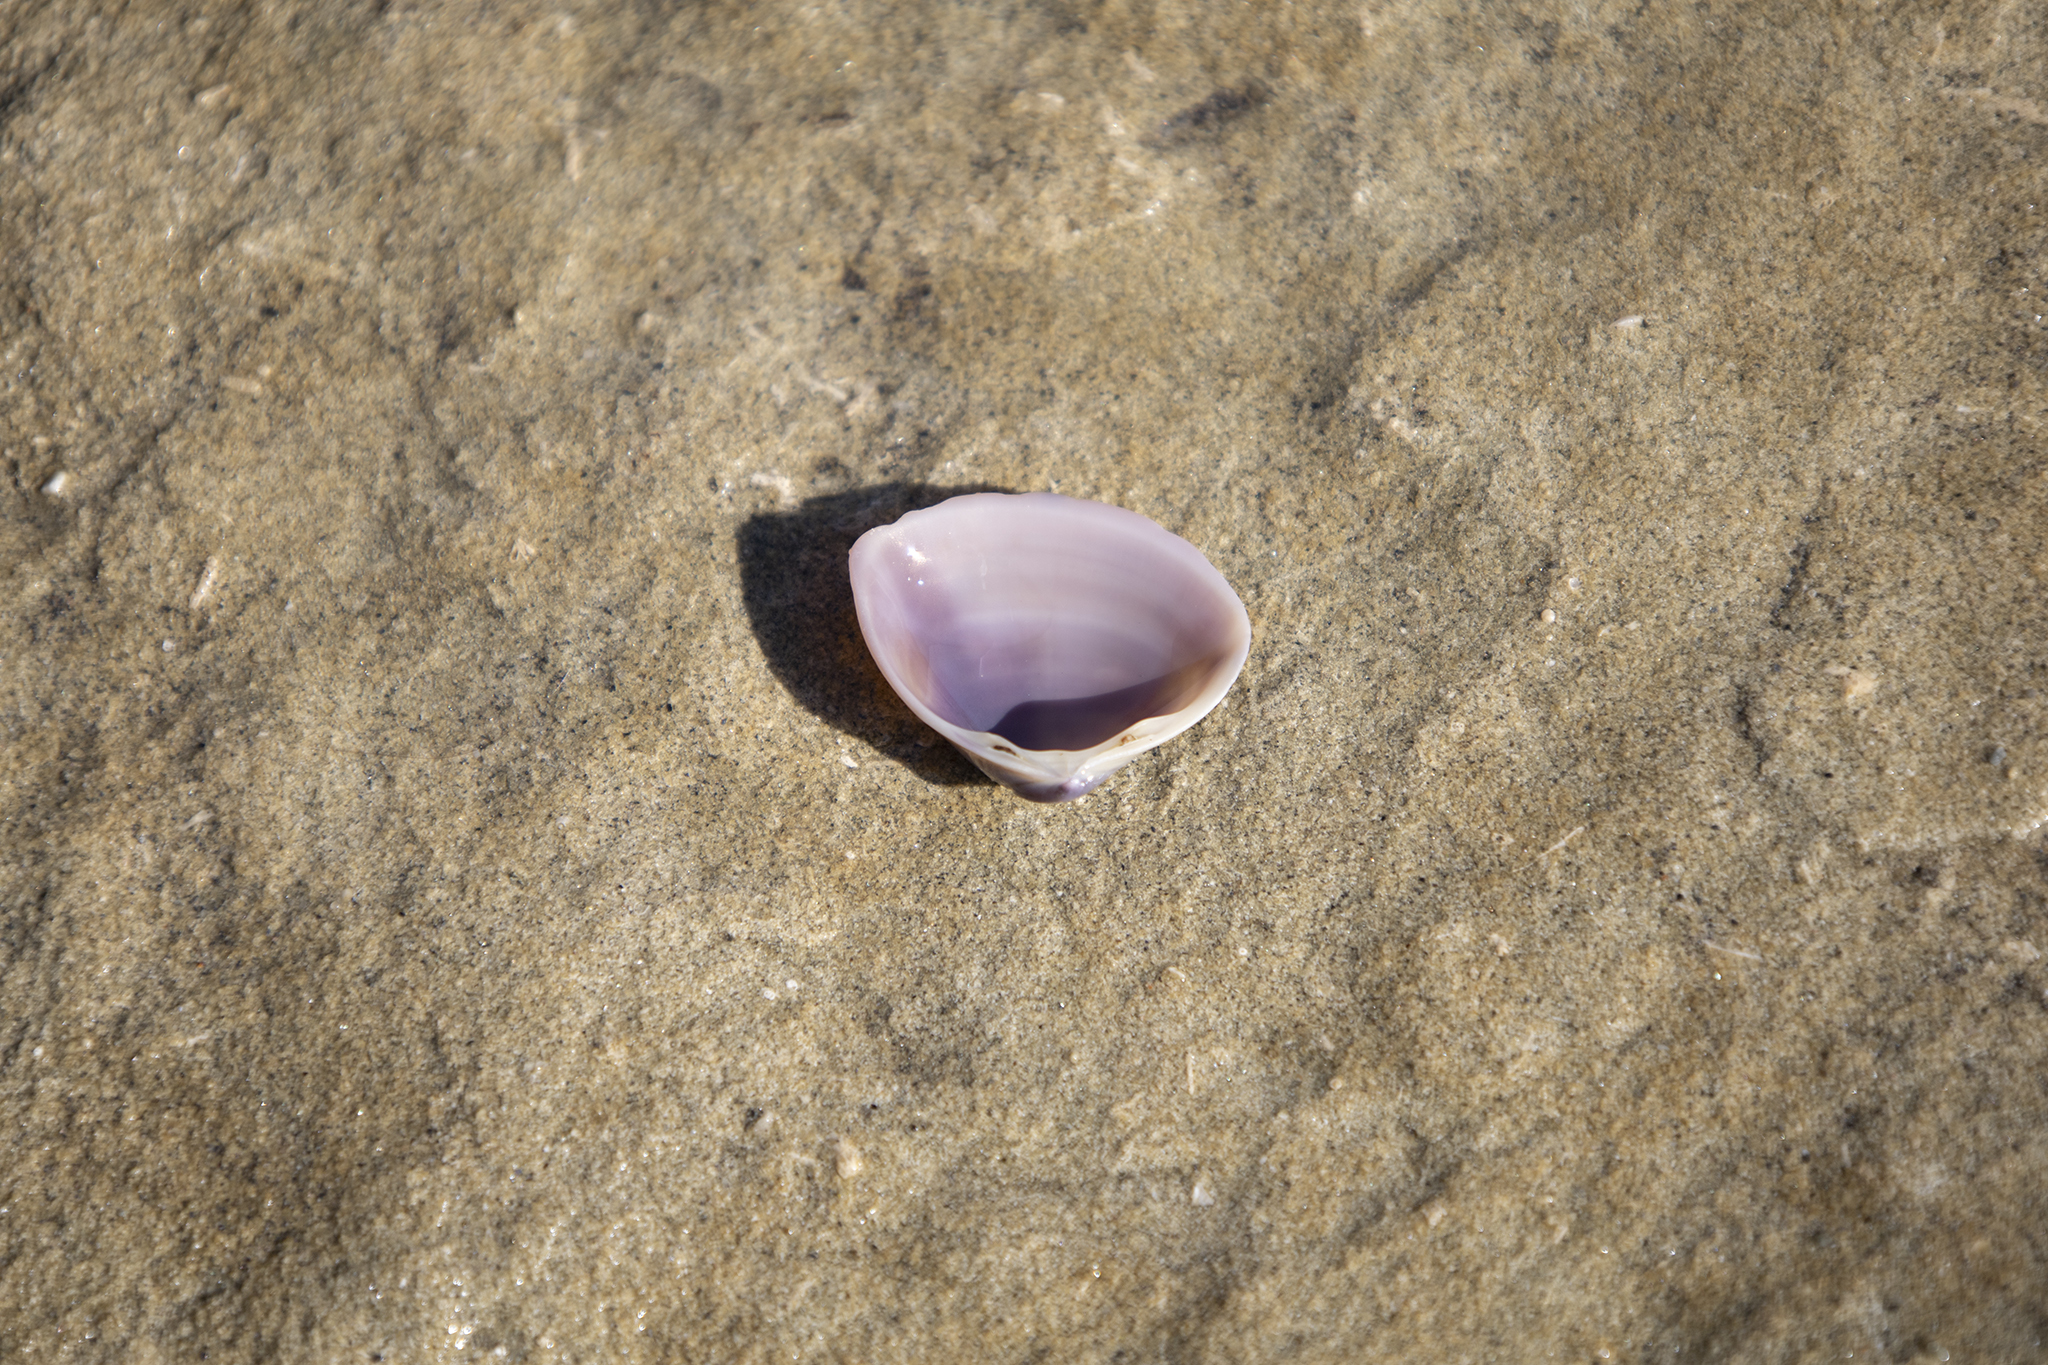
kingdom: Animalia
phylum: Mollusca
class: Bivalvia
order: Venerida
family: Mactridae
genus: Crassula
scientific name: Crassula aequilatera
